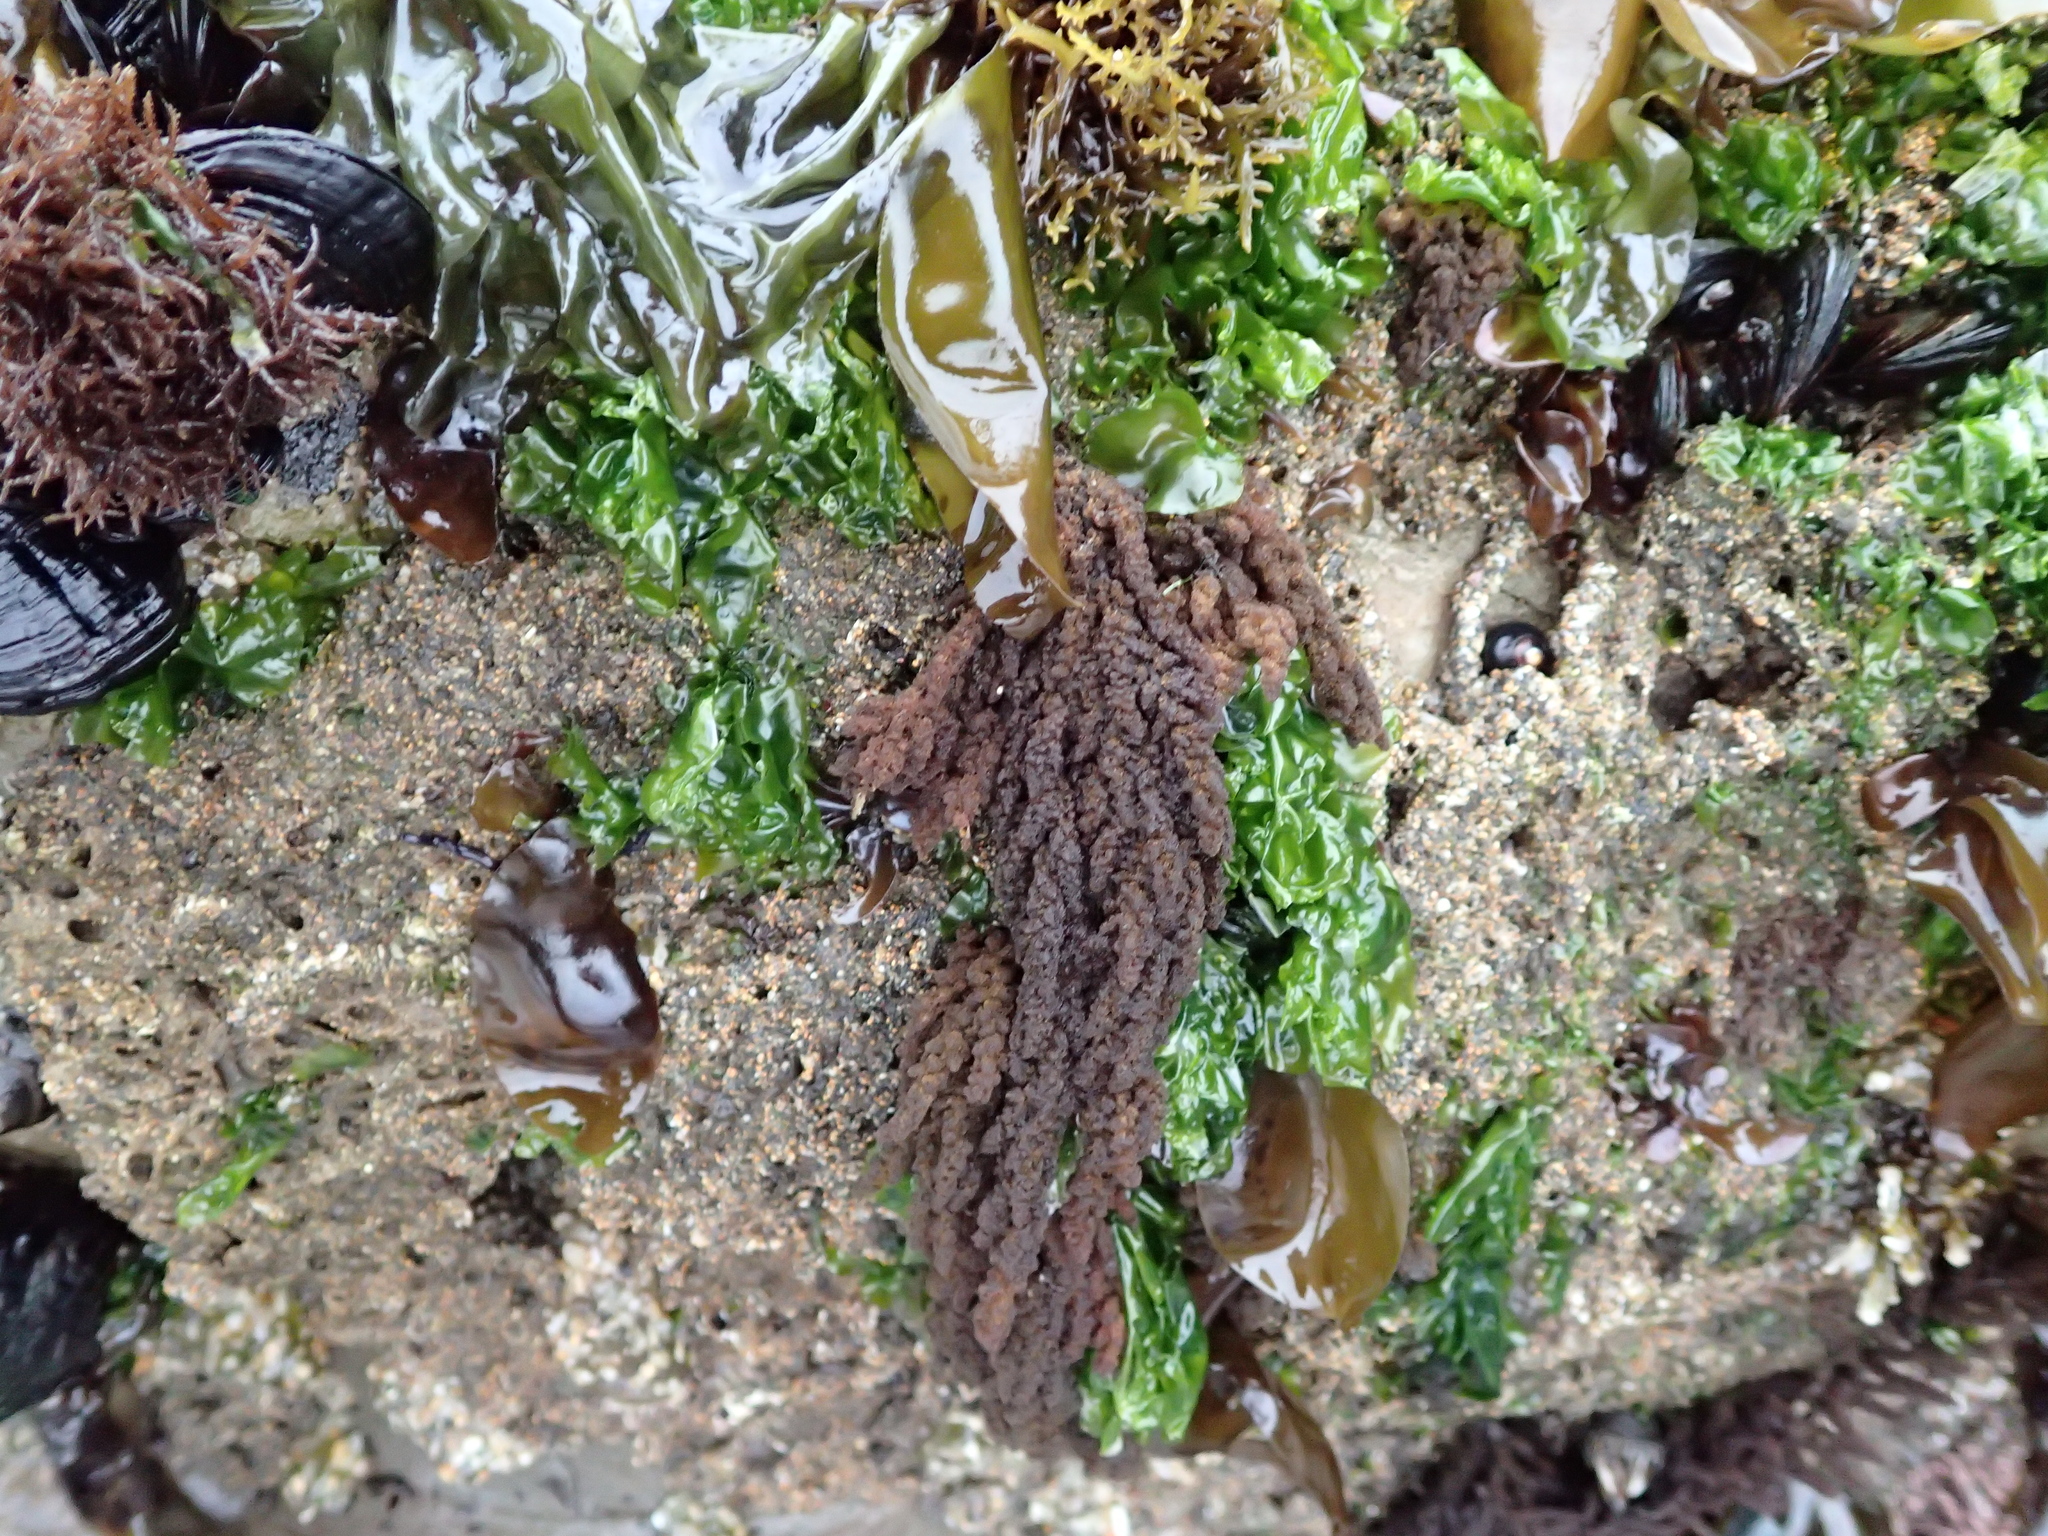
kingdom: Plantae
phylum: Rhodophyta
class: Florideophyceae
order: Ceramiales
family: Callithamniaceae
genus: Callithamnion
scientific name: Callithamnion pikeanum
